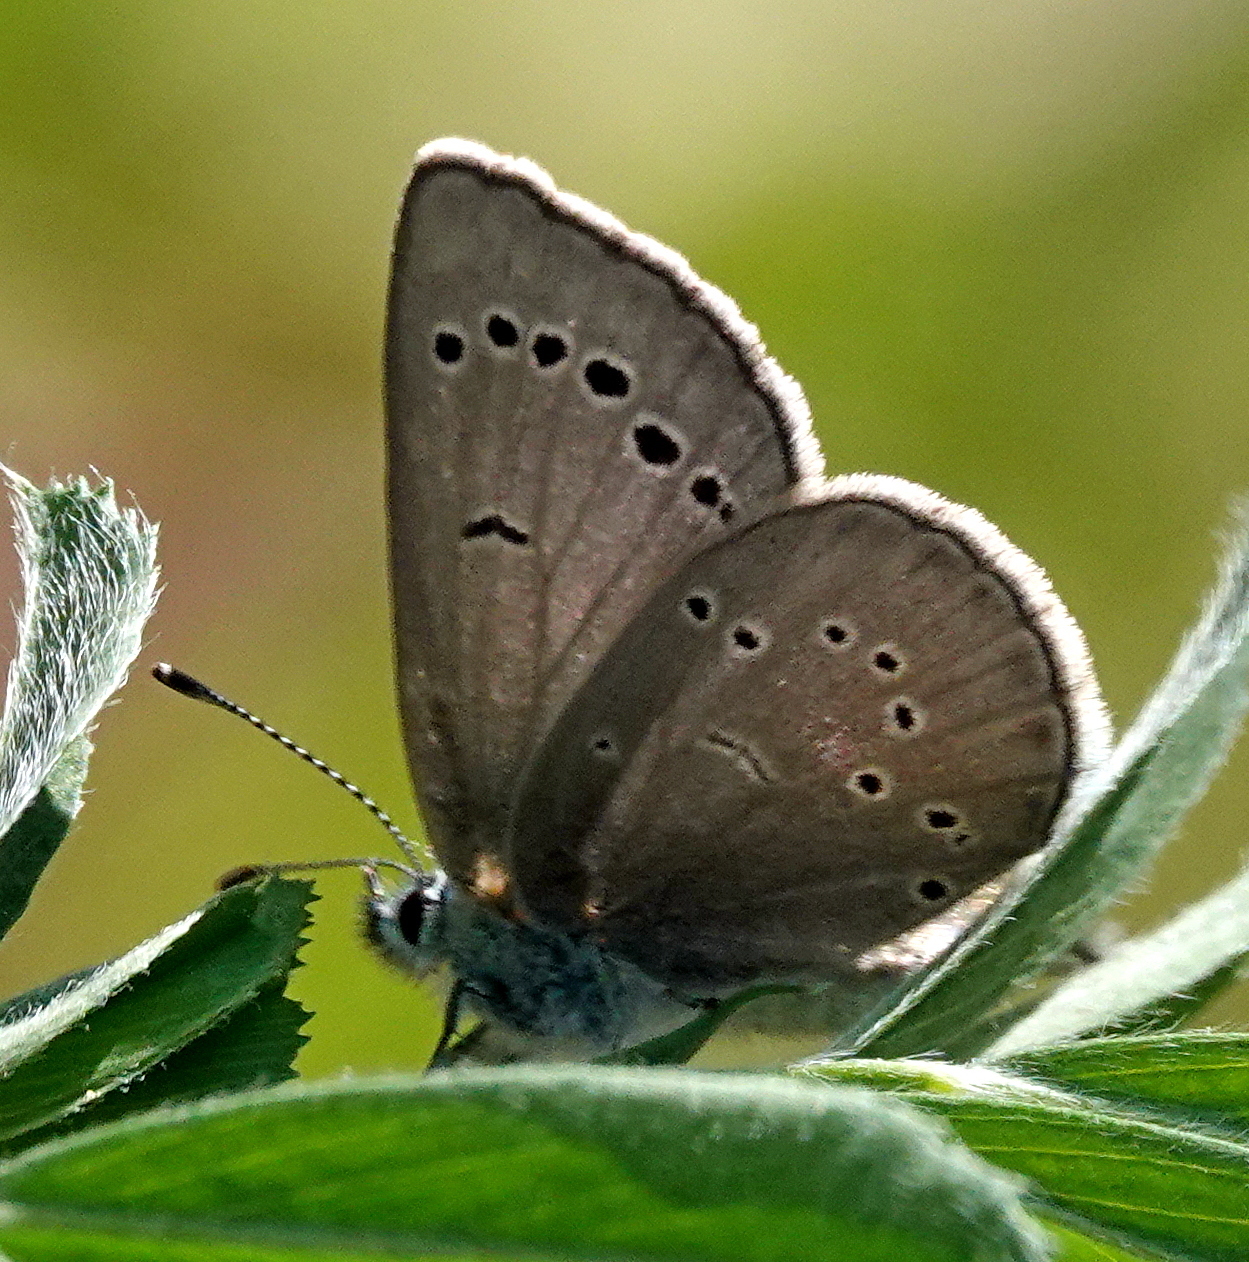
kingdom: Animalia
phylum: Arthropoda
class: Insecta
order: Lepidoptera
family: Lycaenidae
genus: Glaucopsyche
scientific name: Glaucopsyche lygdamus
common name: Silvery blue
